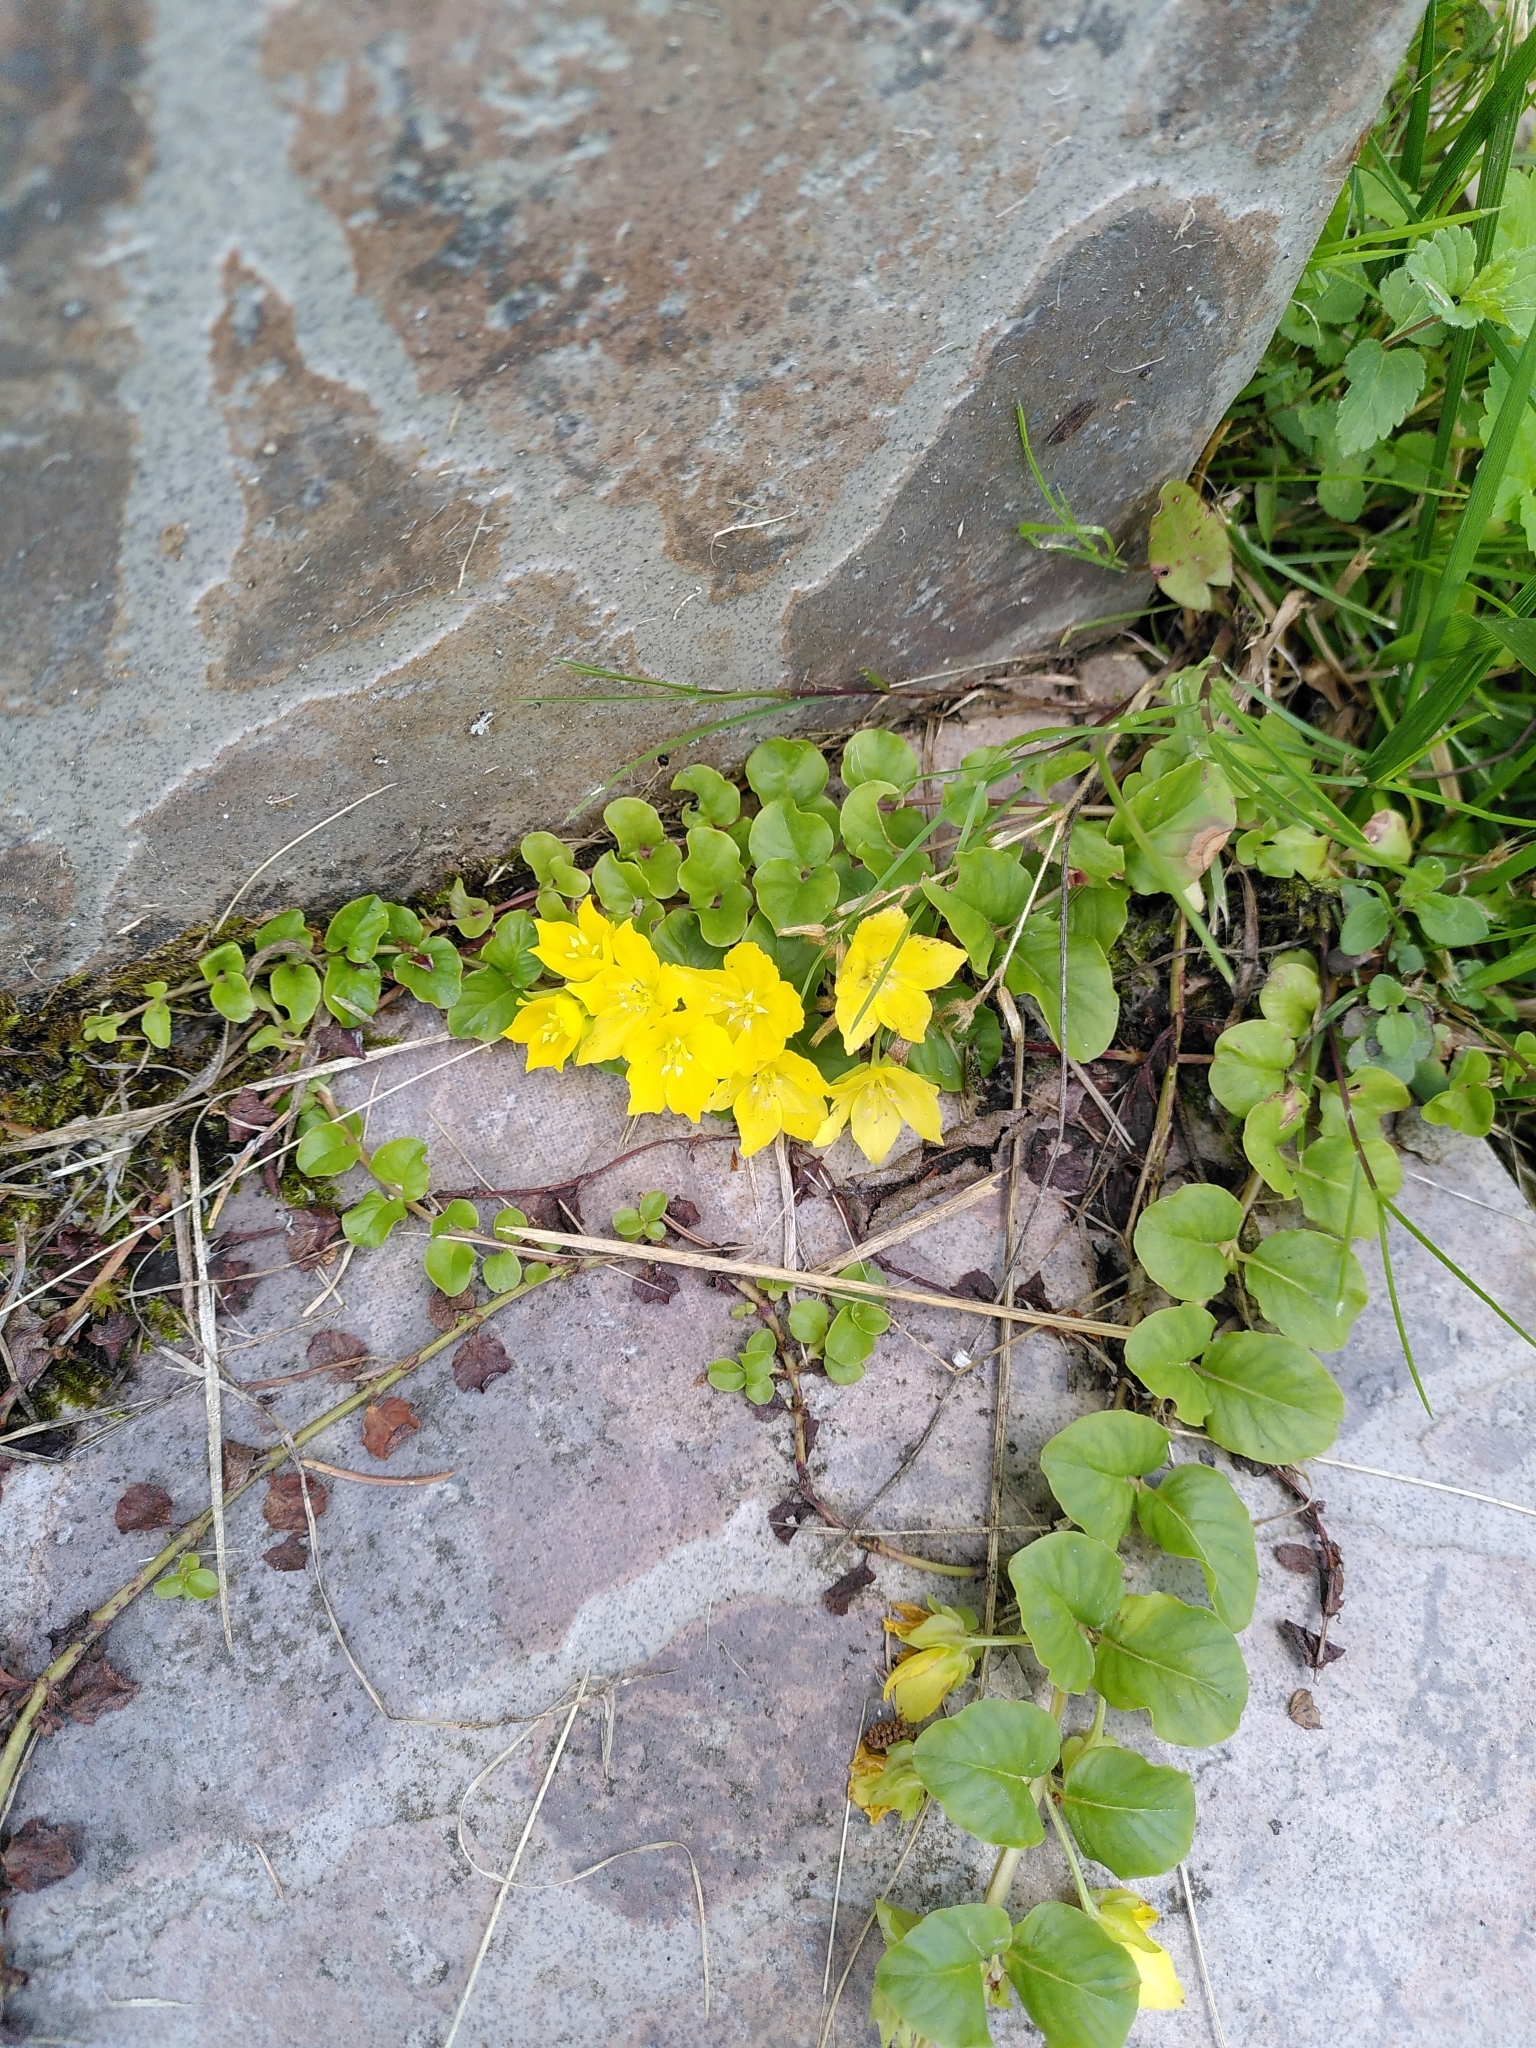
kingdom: Plantae
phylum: Tracheophyta
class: Magnoliopsida
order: Ericales
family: Primulaceae
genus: Lysimachia
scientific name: Lysimachia nummularia
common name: Moneywort
